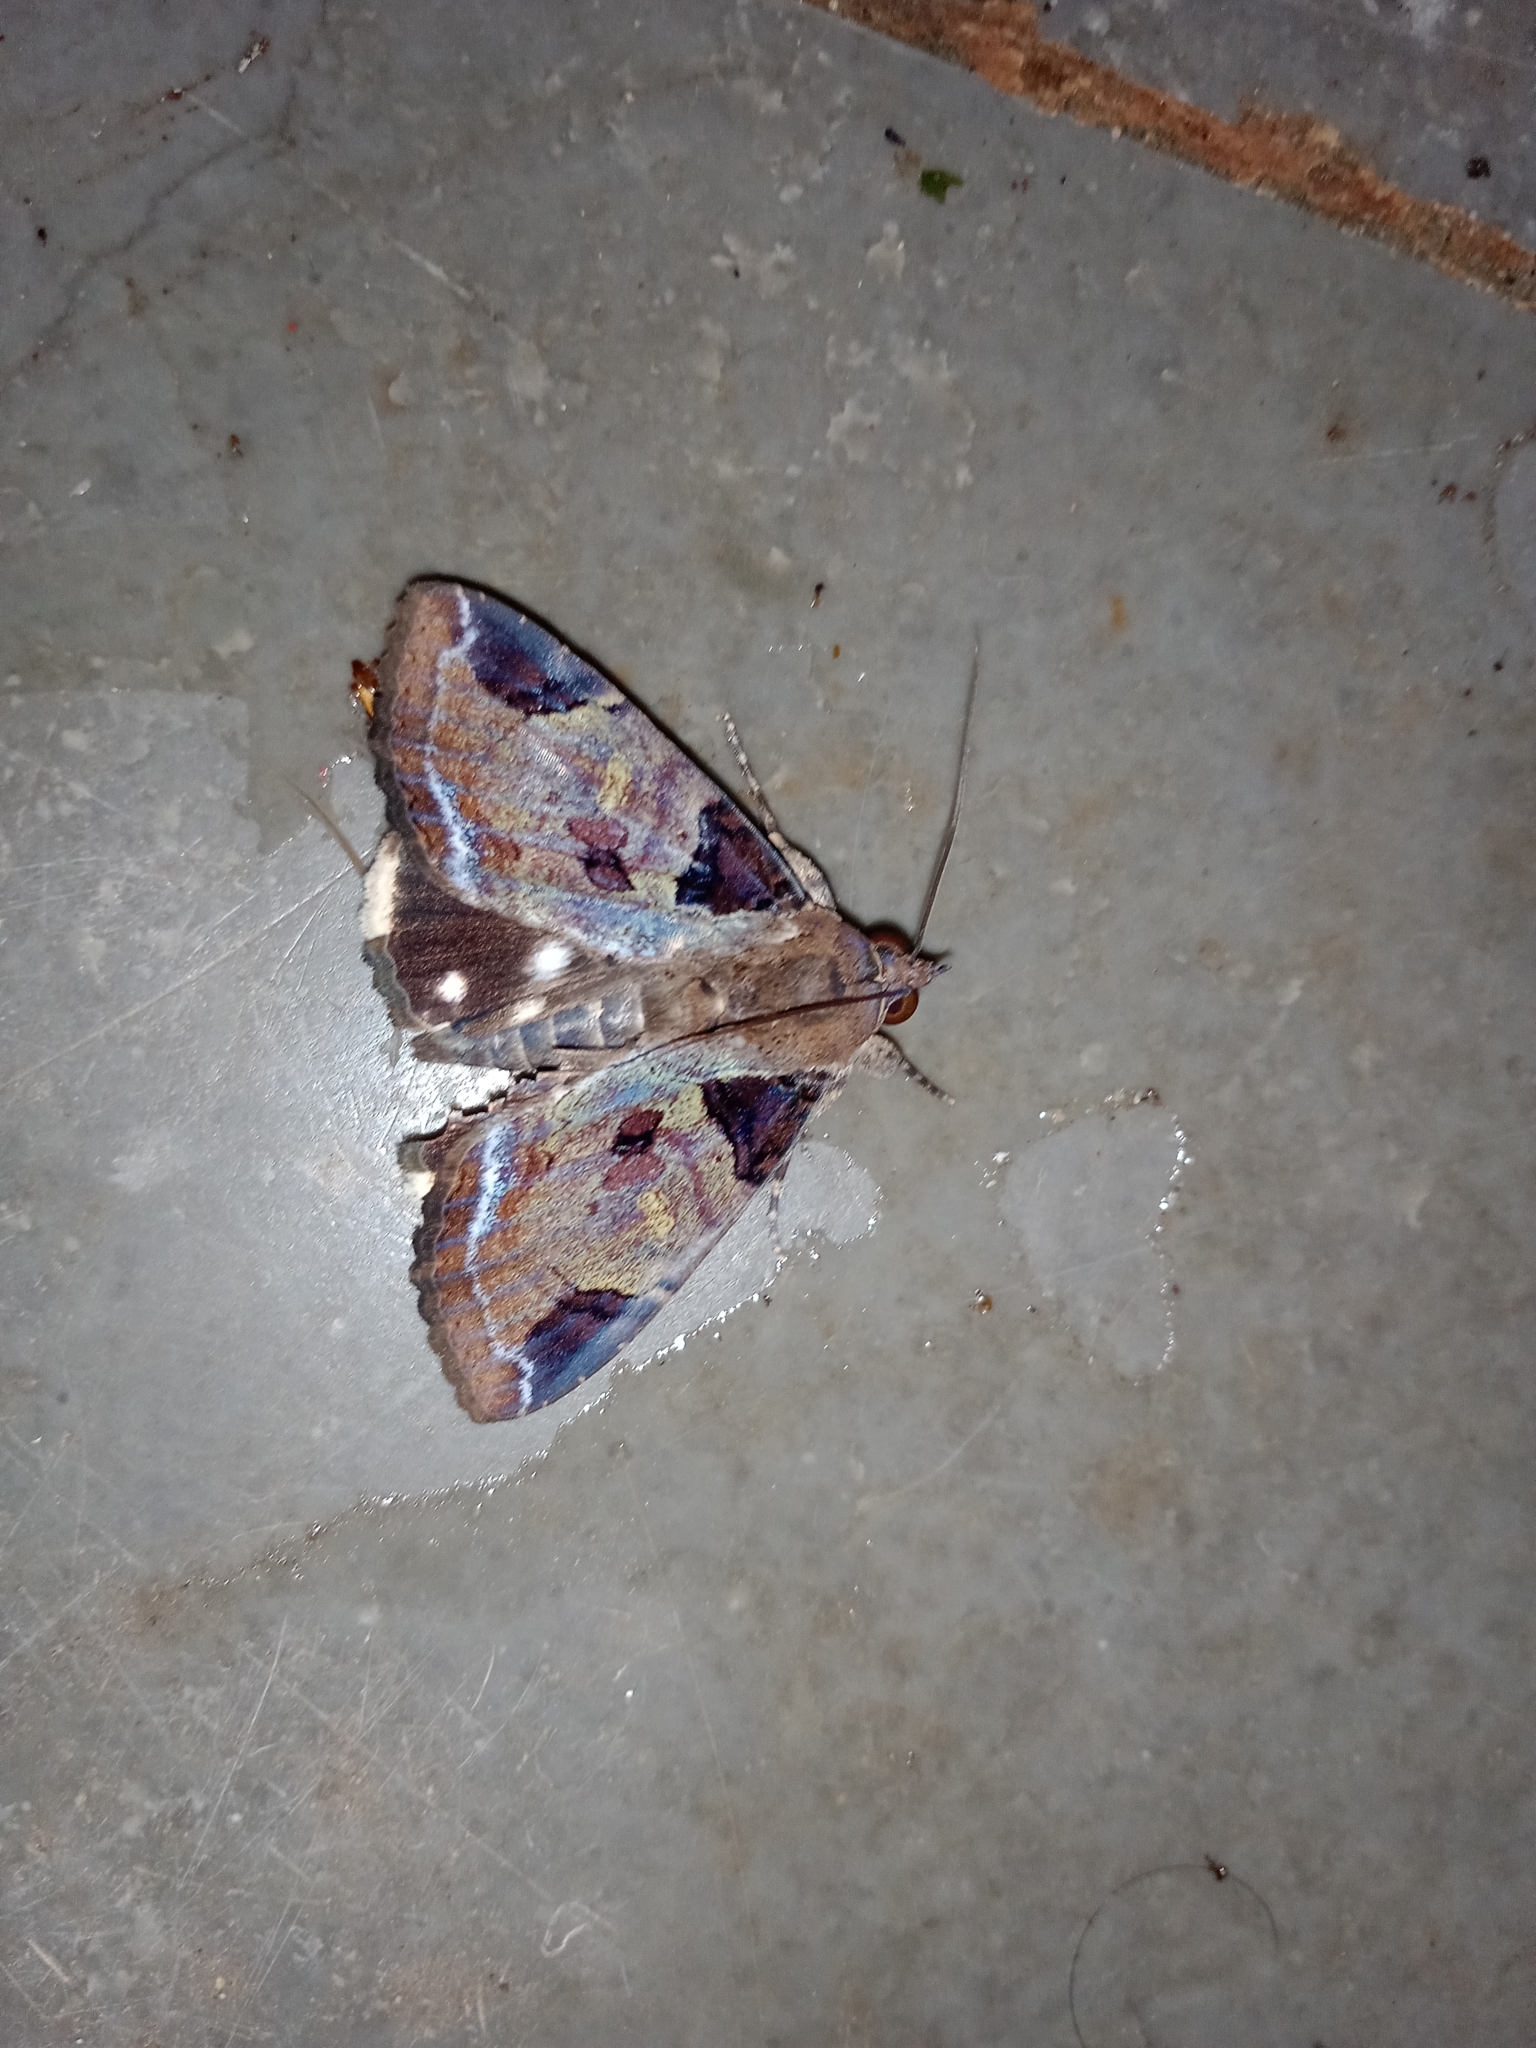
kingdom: Animalia
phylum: Arthropoda
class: Insecta
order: Lepidoptera
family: Erebidae
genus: Ercheia
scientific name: Ercheia cyllaria
